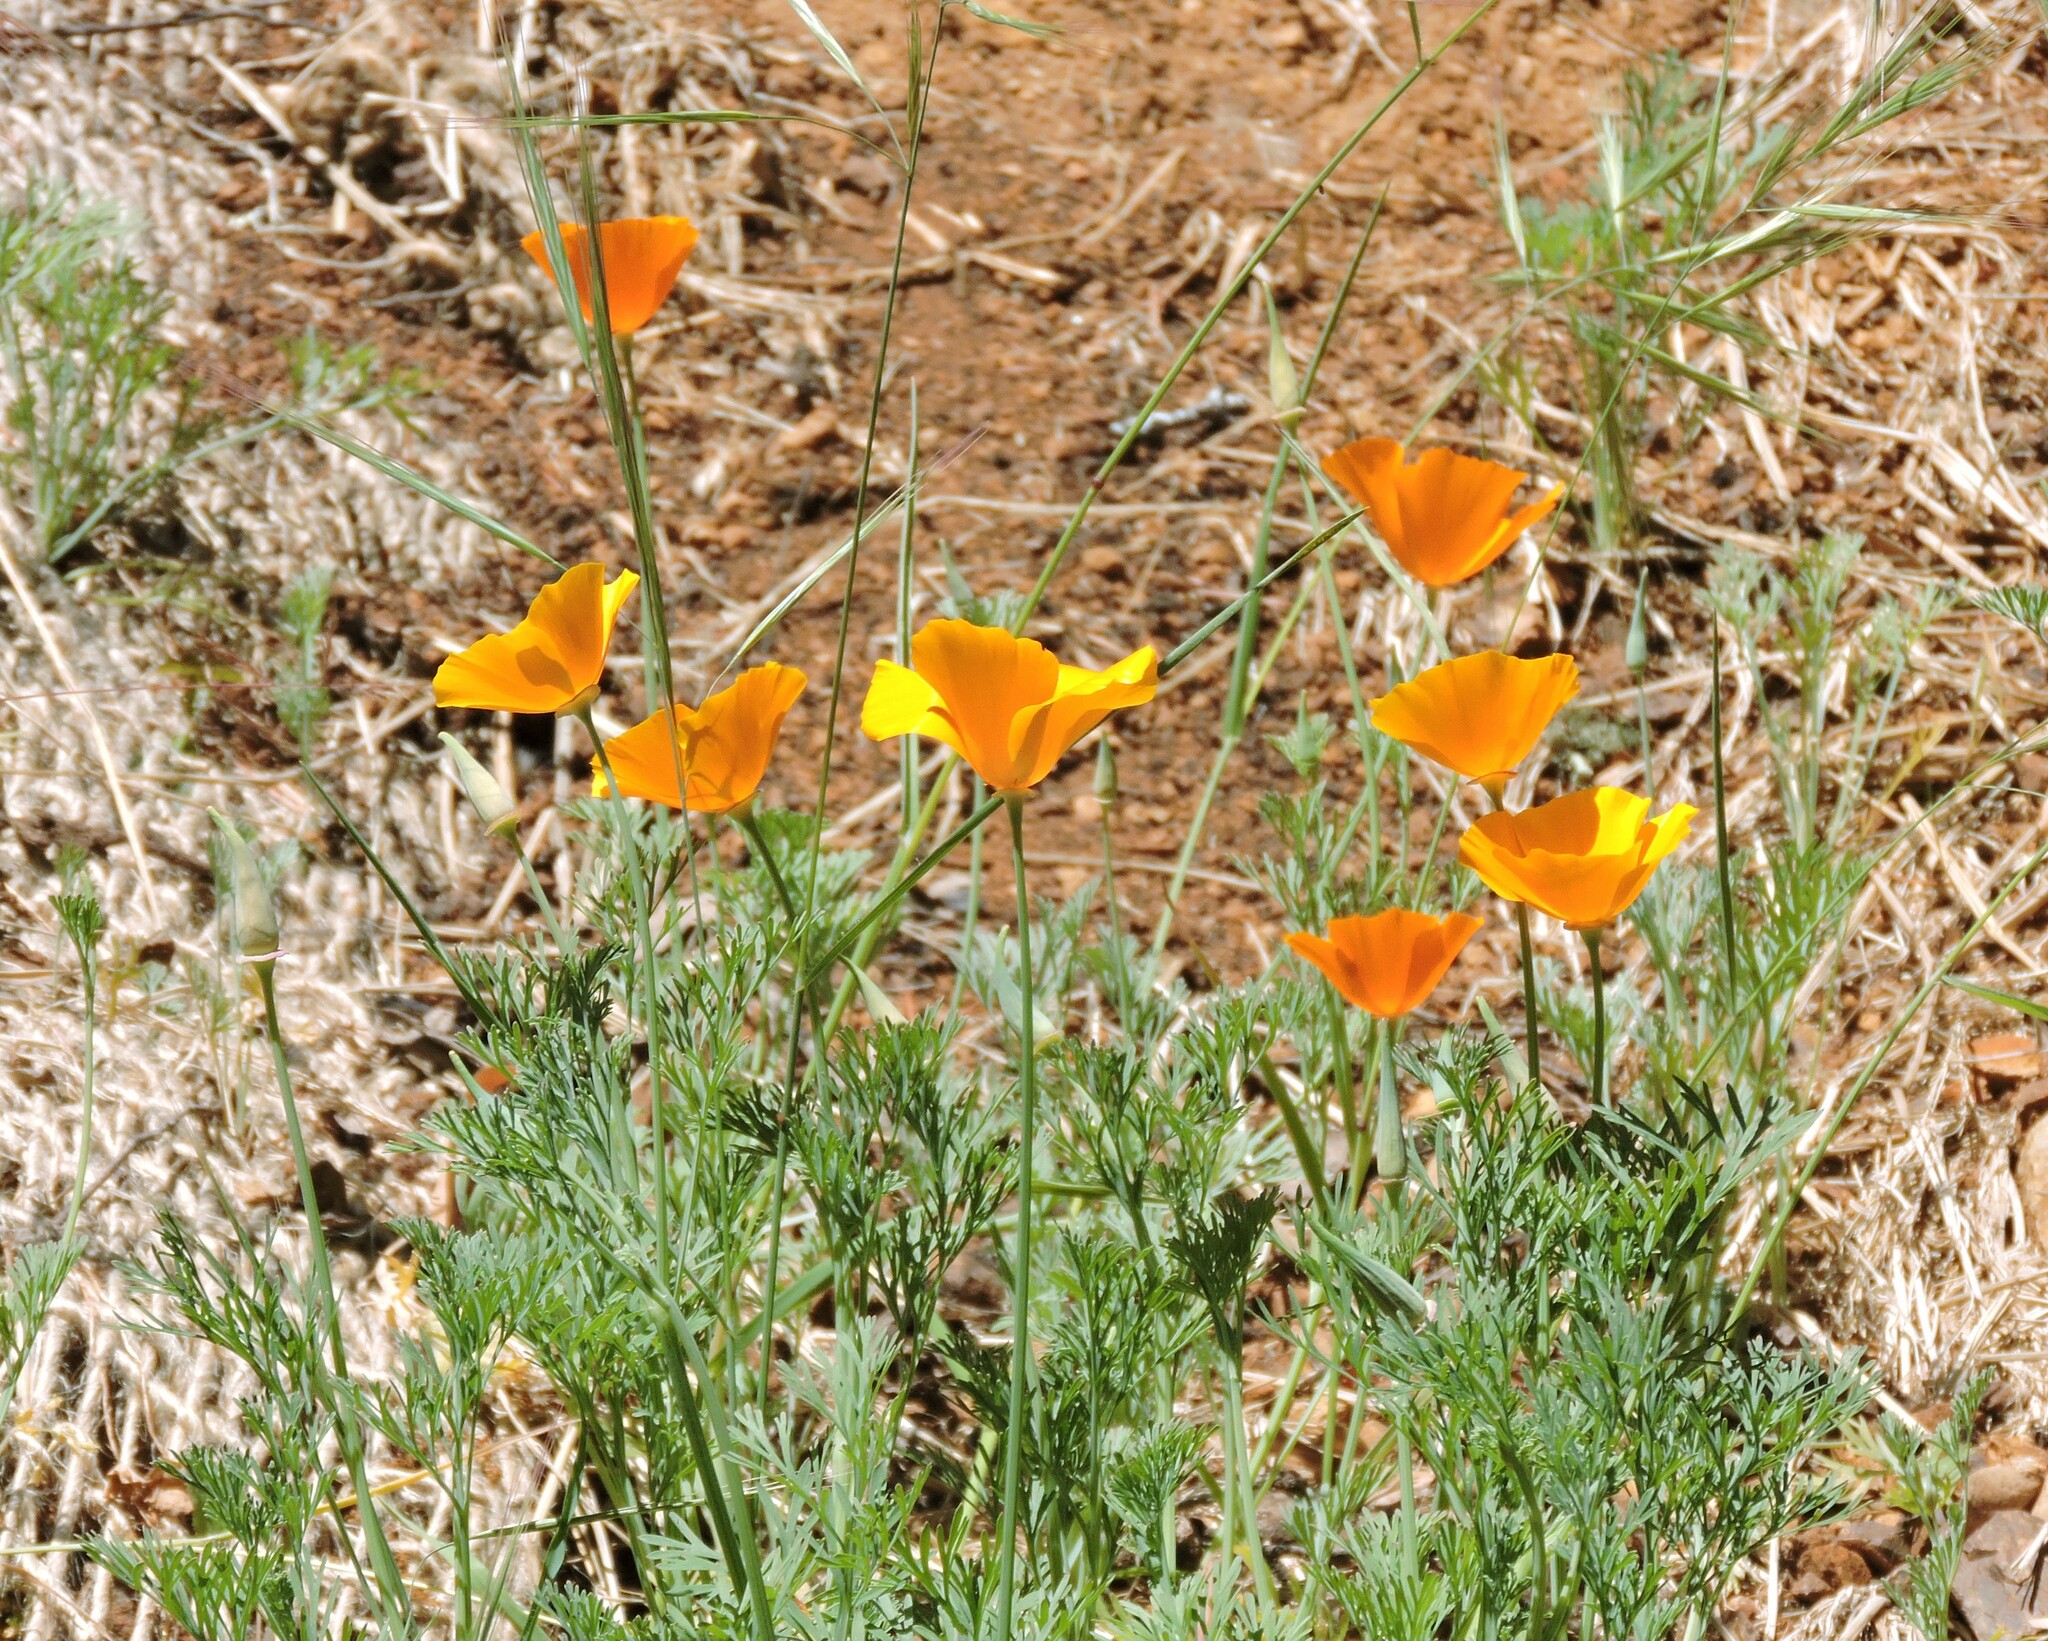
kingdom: Plantae
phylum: Tracheophyta
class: Magnoliopsida
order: Ranunculales
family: Papaveraceae
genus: Eschscholzia
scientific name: Eschscholzia californica
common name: California poppy
